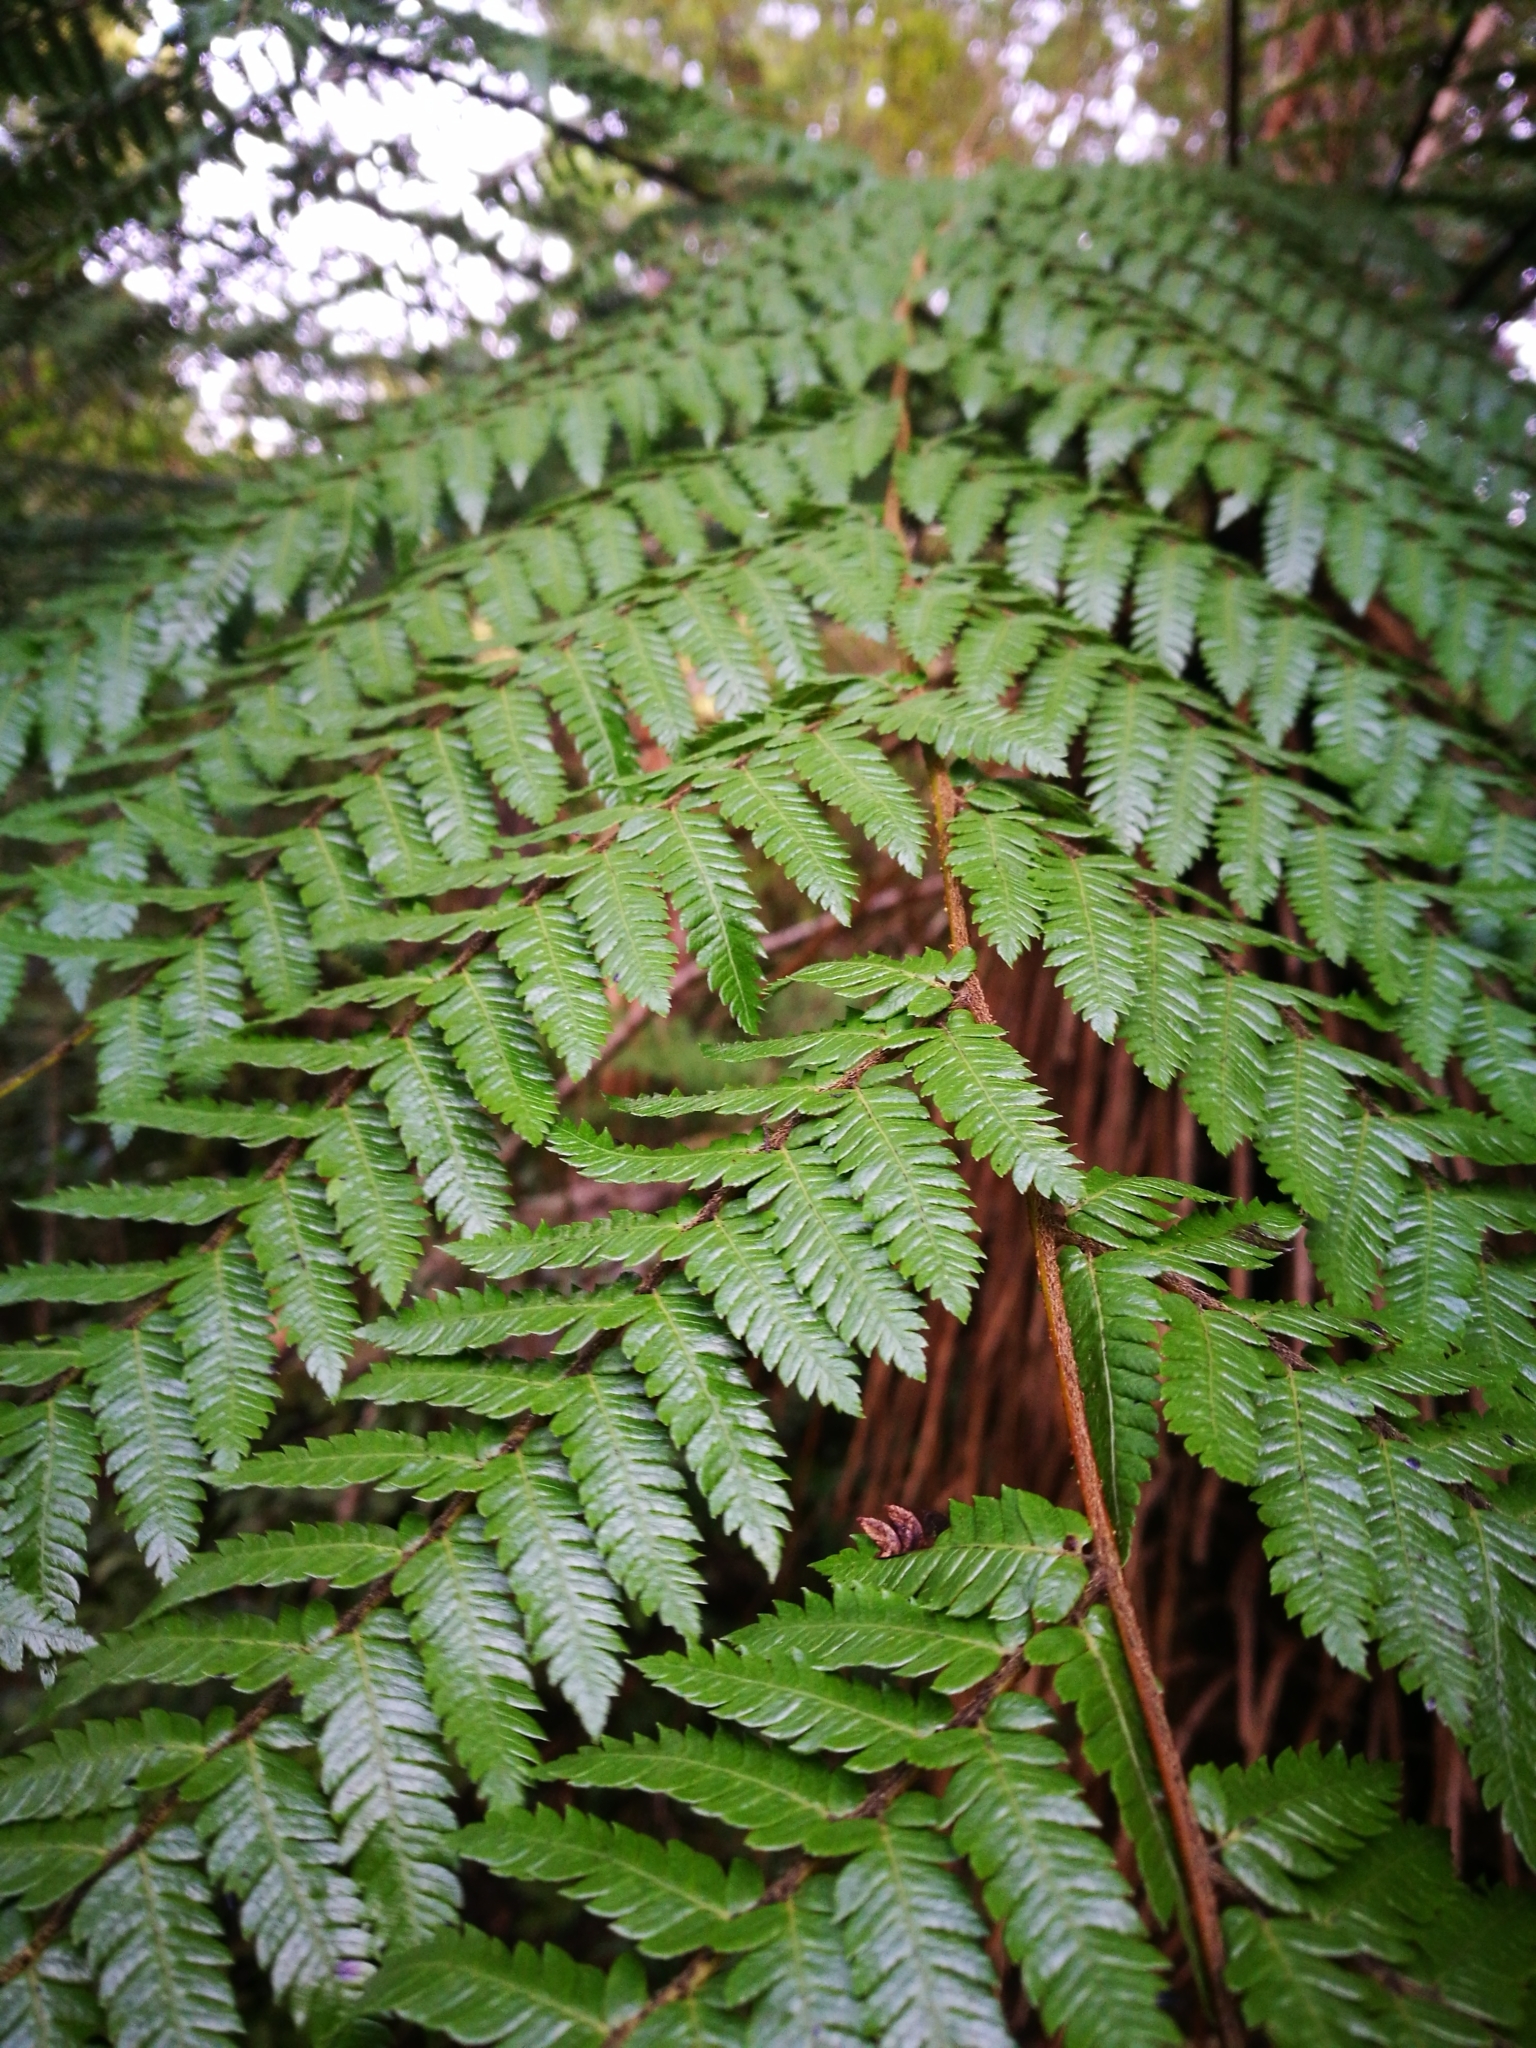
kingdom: Plantae
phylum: Tracheophyta
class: Polypodiopsida
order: Cyatheales
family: Cyatheaceae
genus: Alsophila
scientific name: Alsophila smithii
